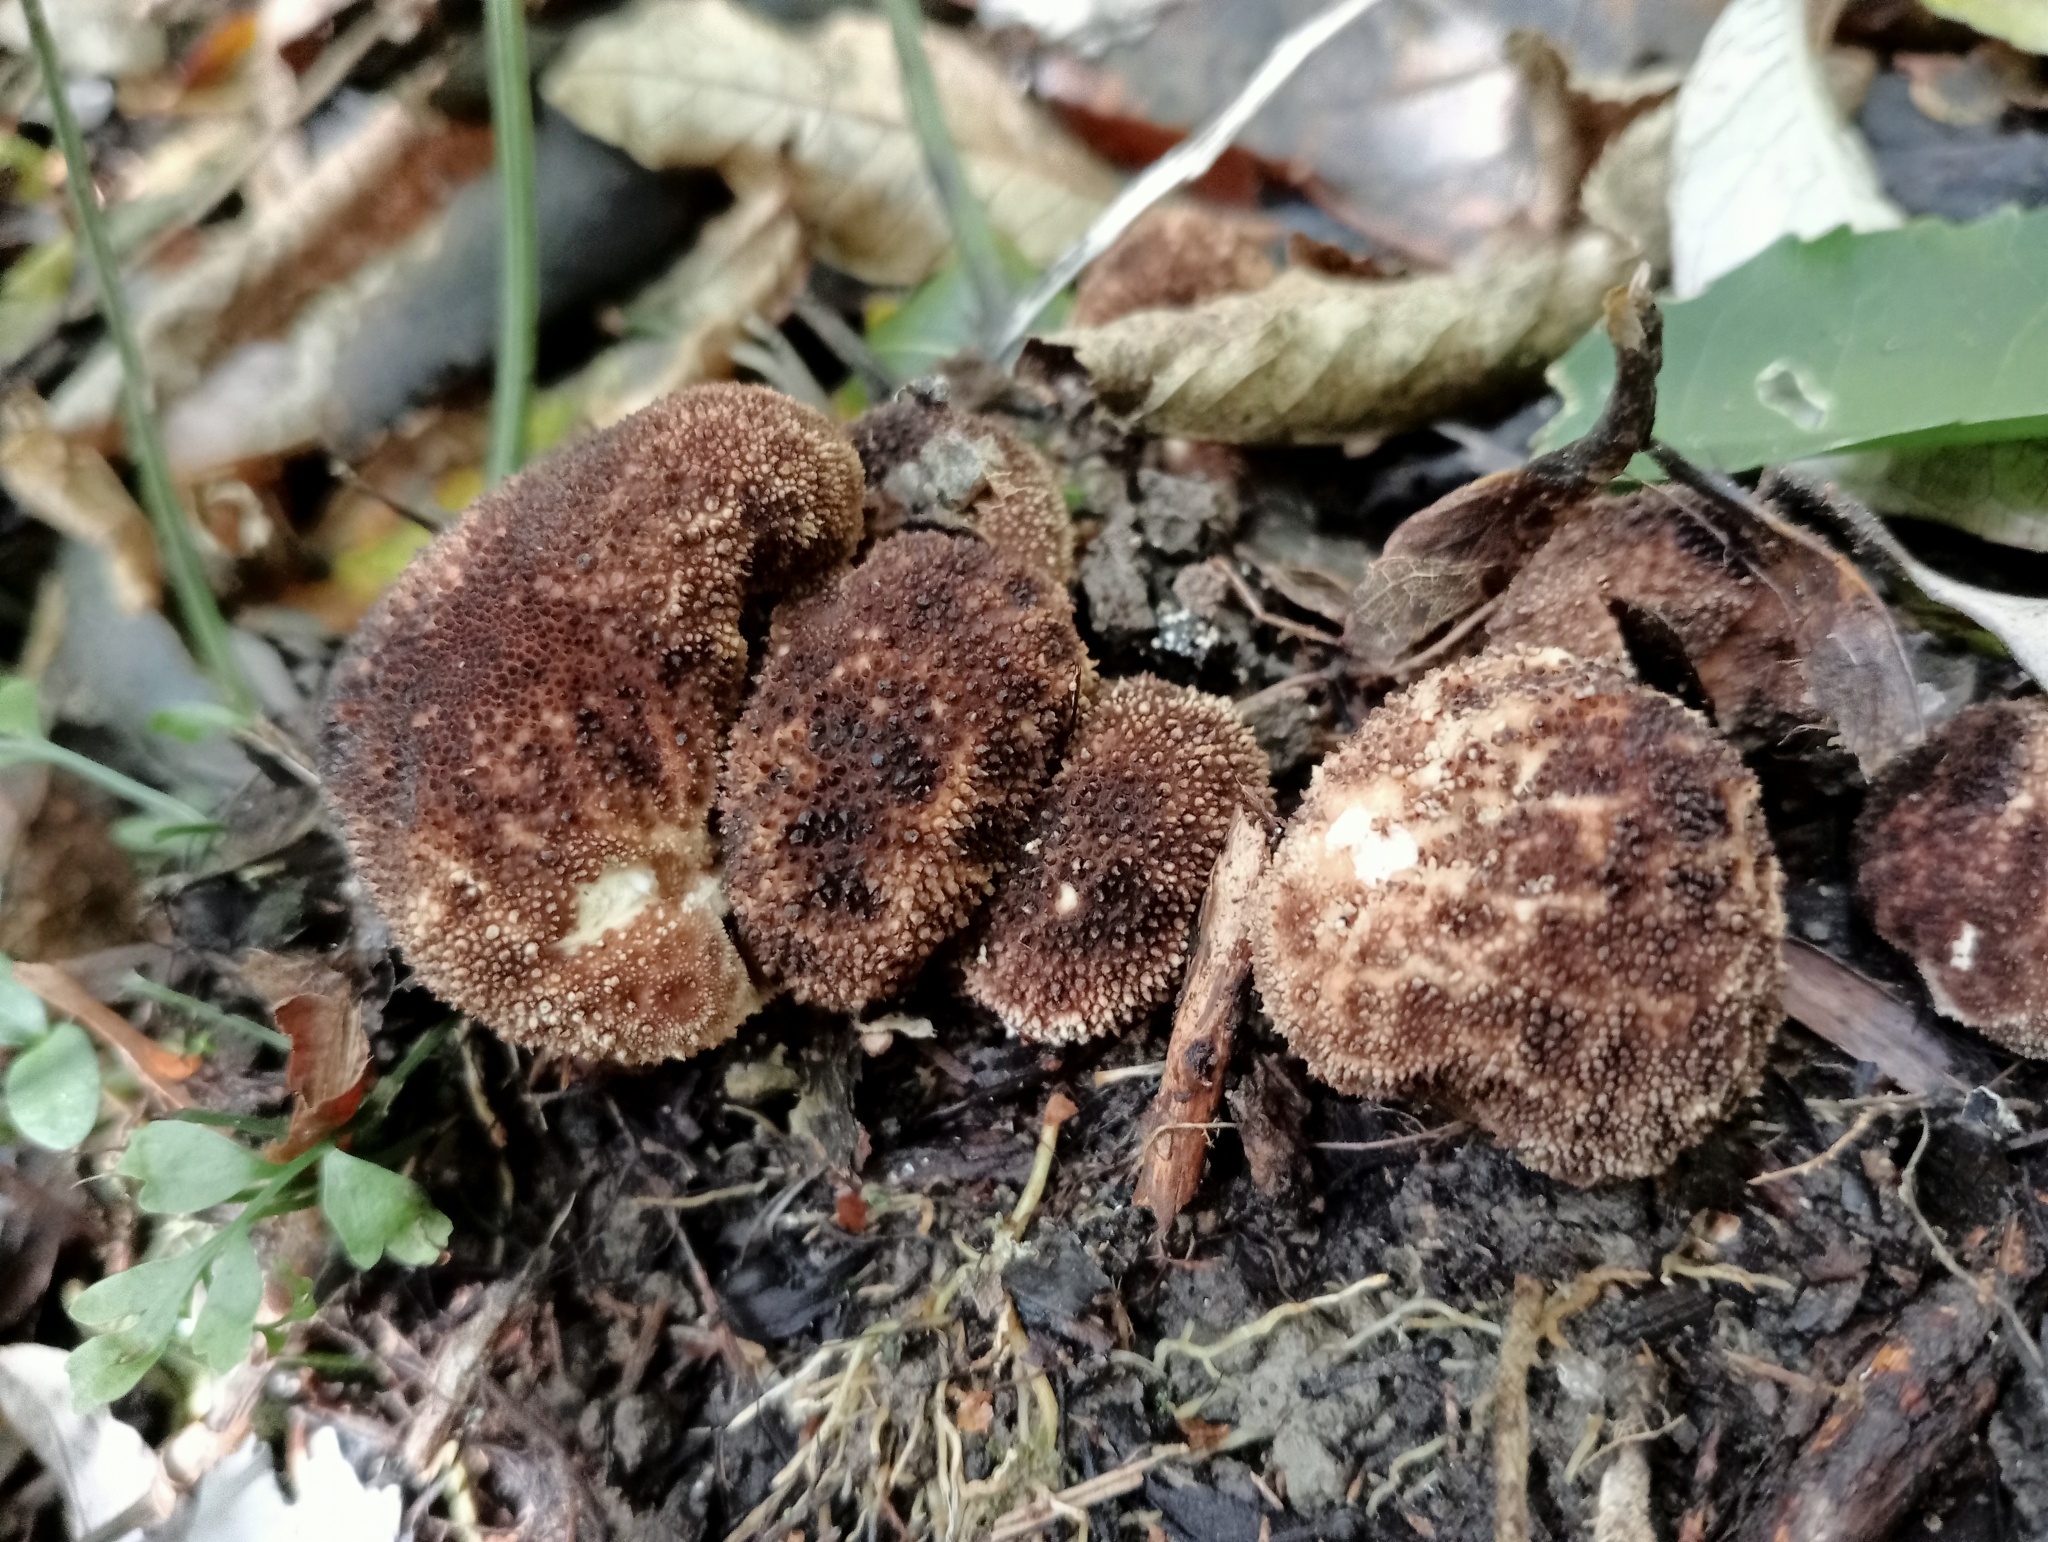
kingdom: Fungi
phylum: Basidiomycota
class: Agaricomycetes
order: Agaricales
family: Lycoperdaceae
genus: Lycoperdon
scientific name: Lycoperdon compactum
